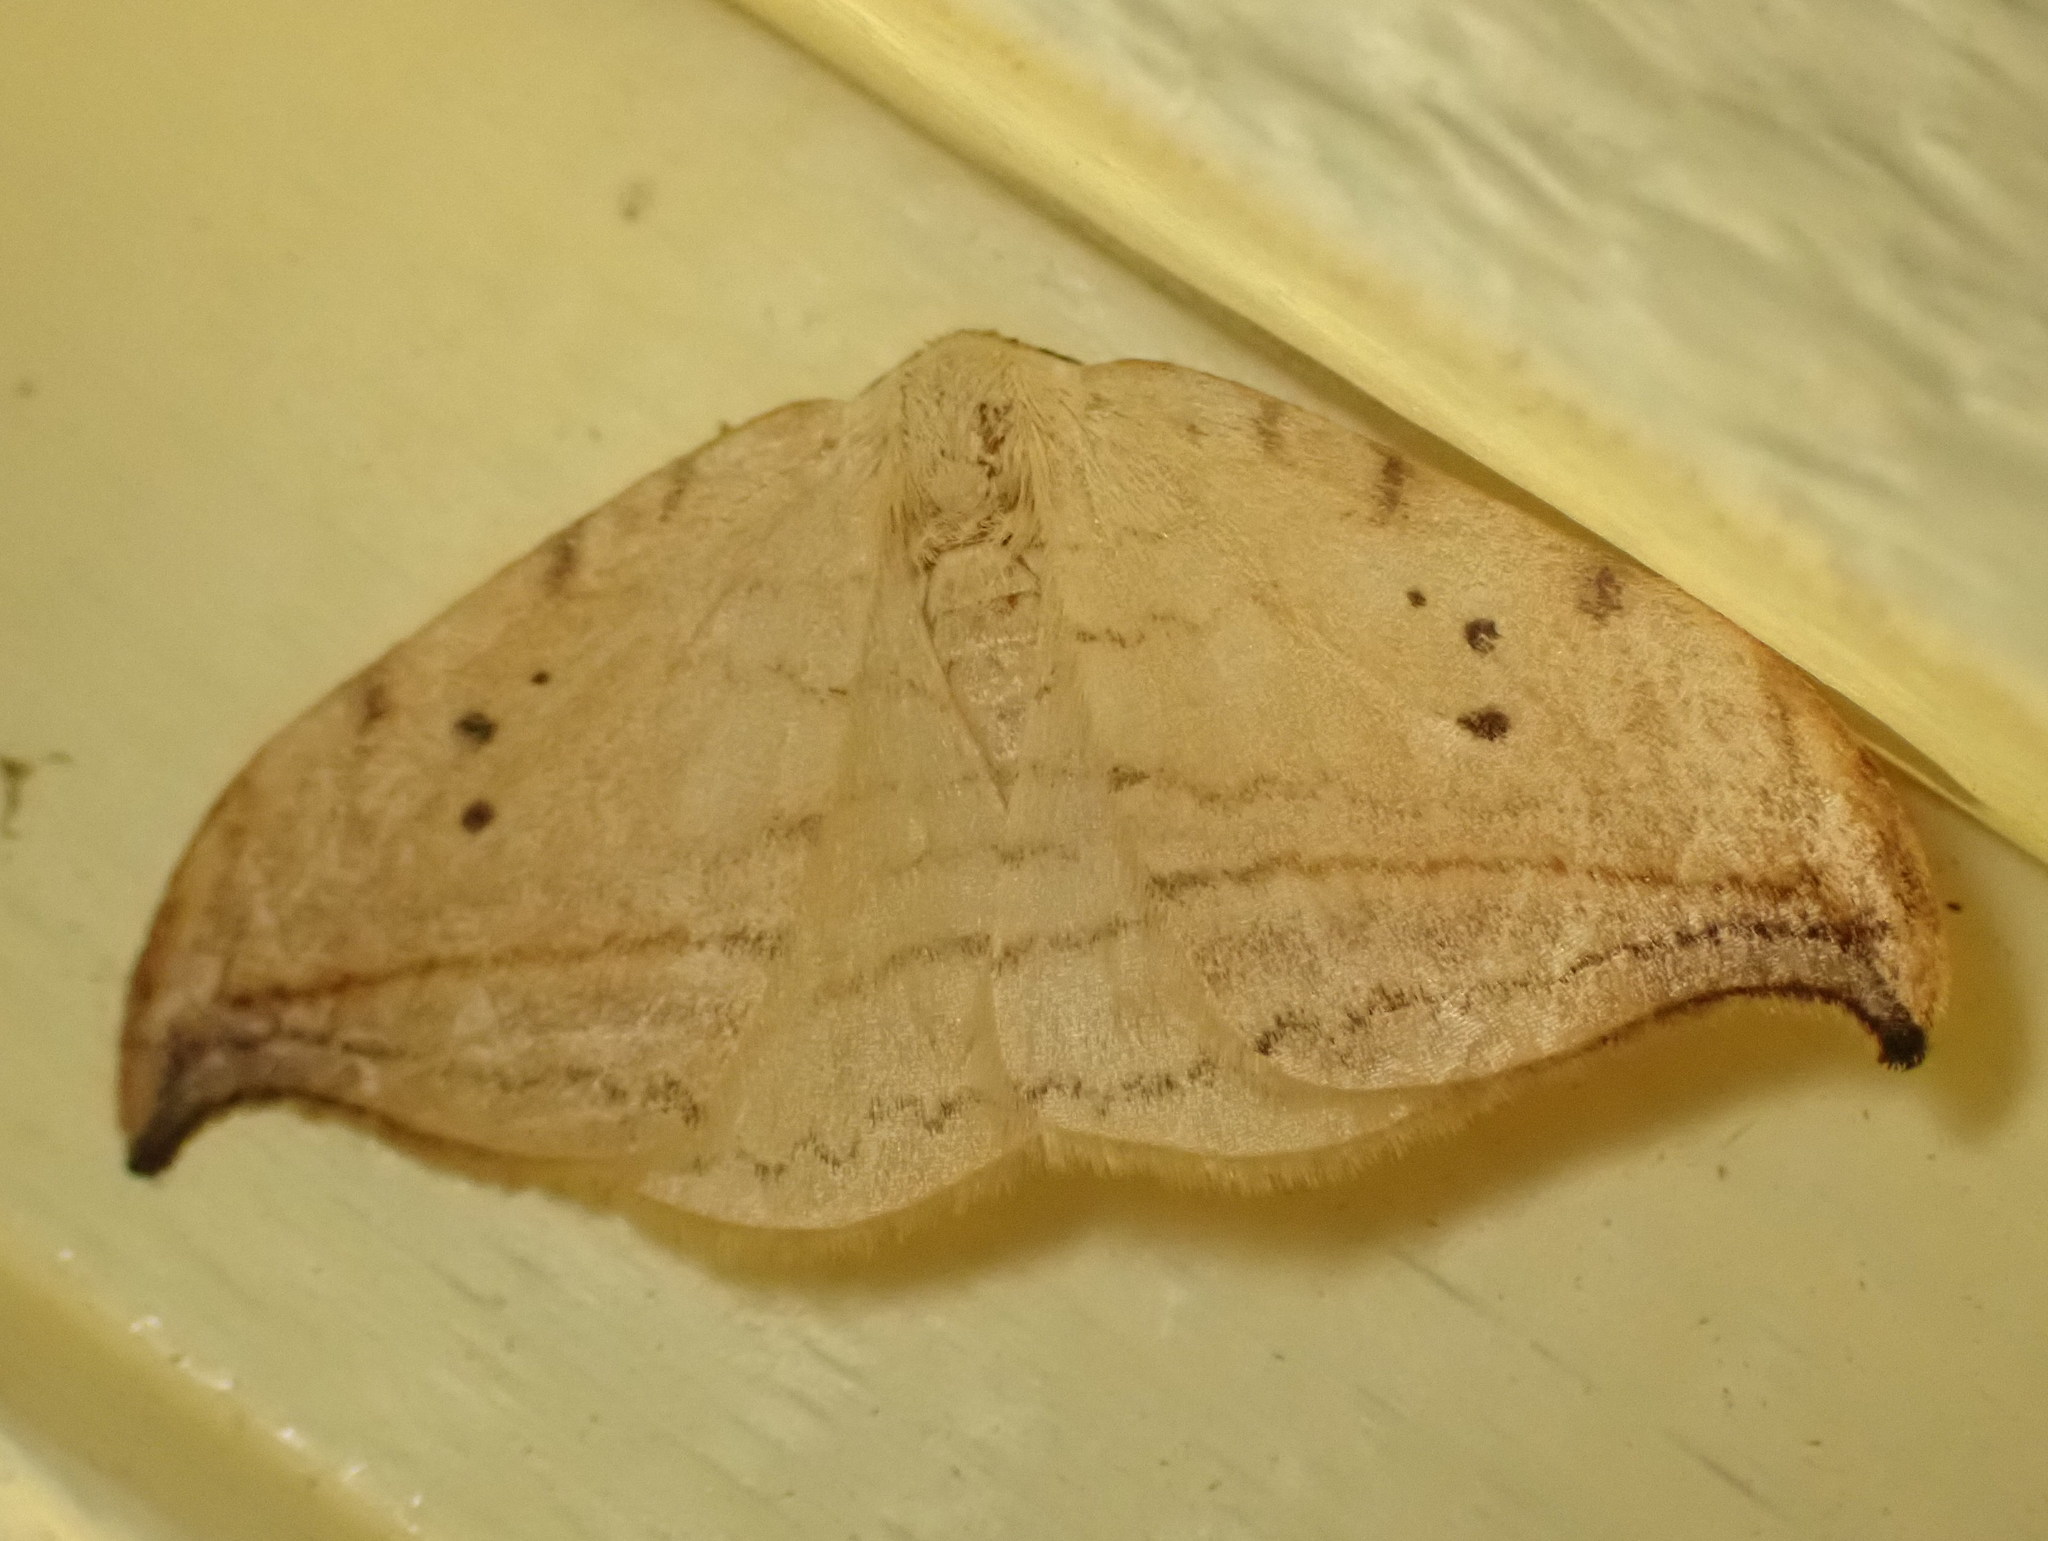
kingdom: Animalia
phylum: Arthropoda
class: Insecta
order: Lepidoptera
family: Drepanidae
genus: Drepana
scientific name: Drepana arcuata
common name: Arched hooktip moth
